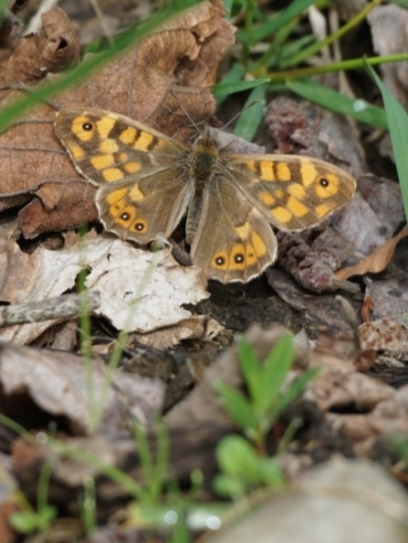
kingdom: Animalia
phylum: Arthropoda
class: Insecta
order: Lepidoptera
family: Nymphalidae
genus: Pararge
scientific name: Pararge aegeria
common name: Speckled wood
